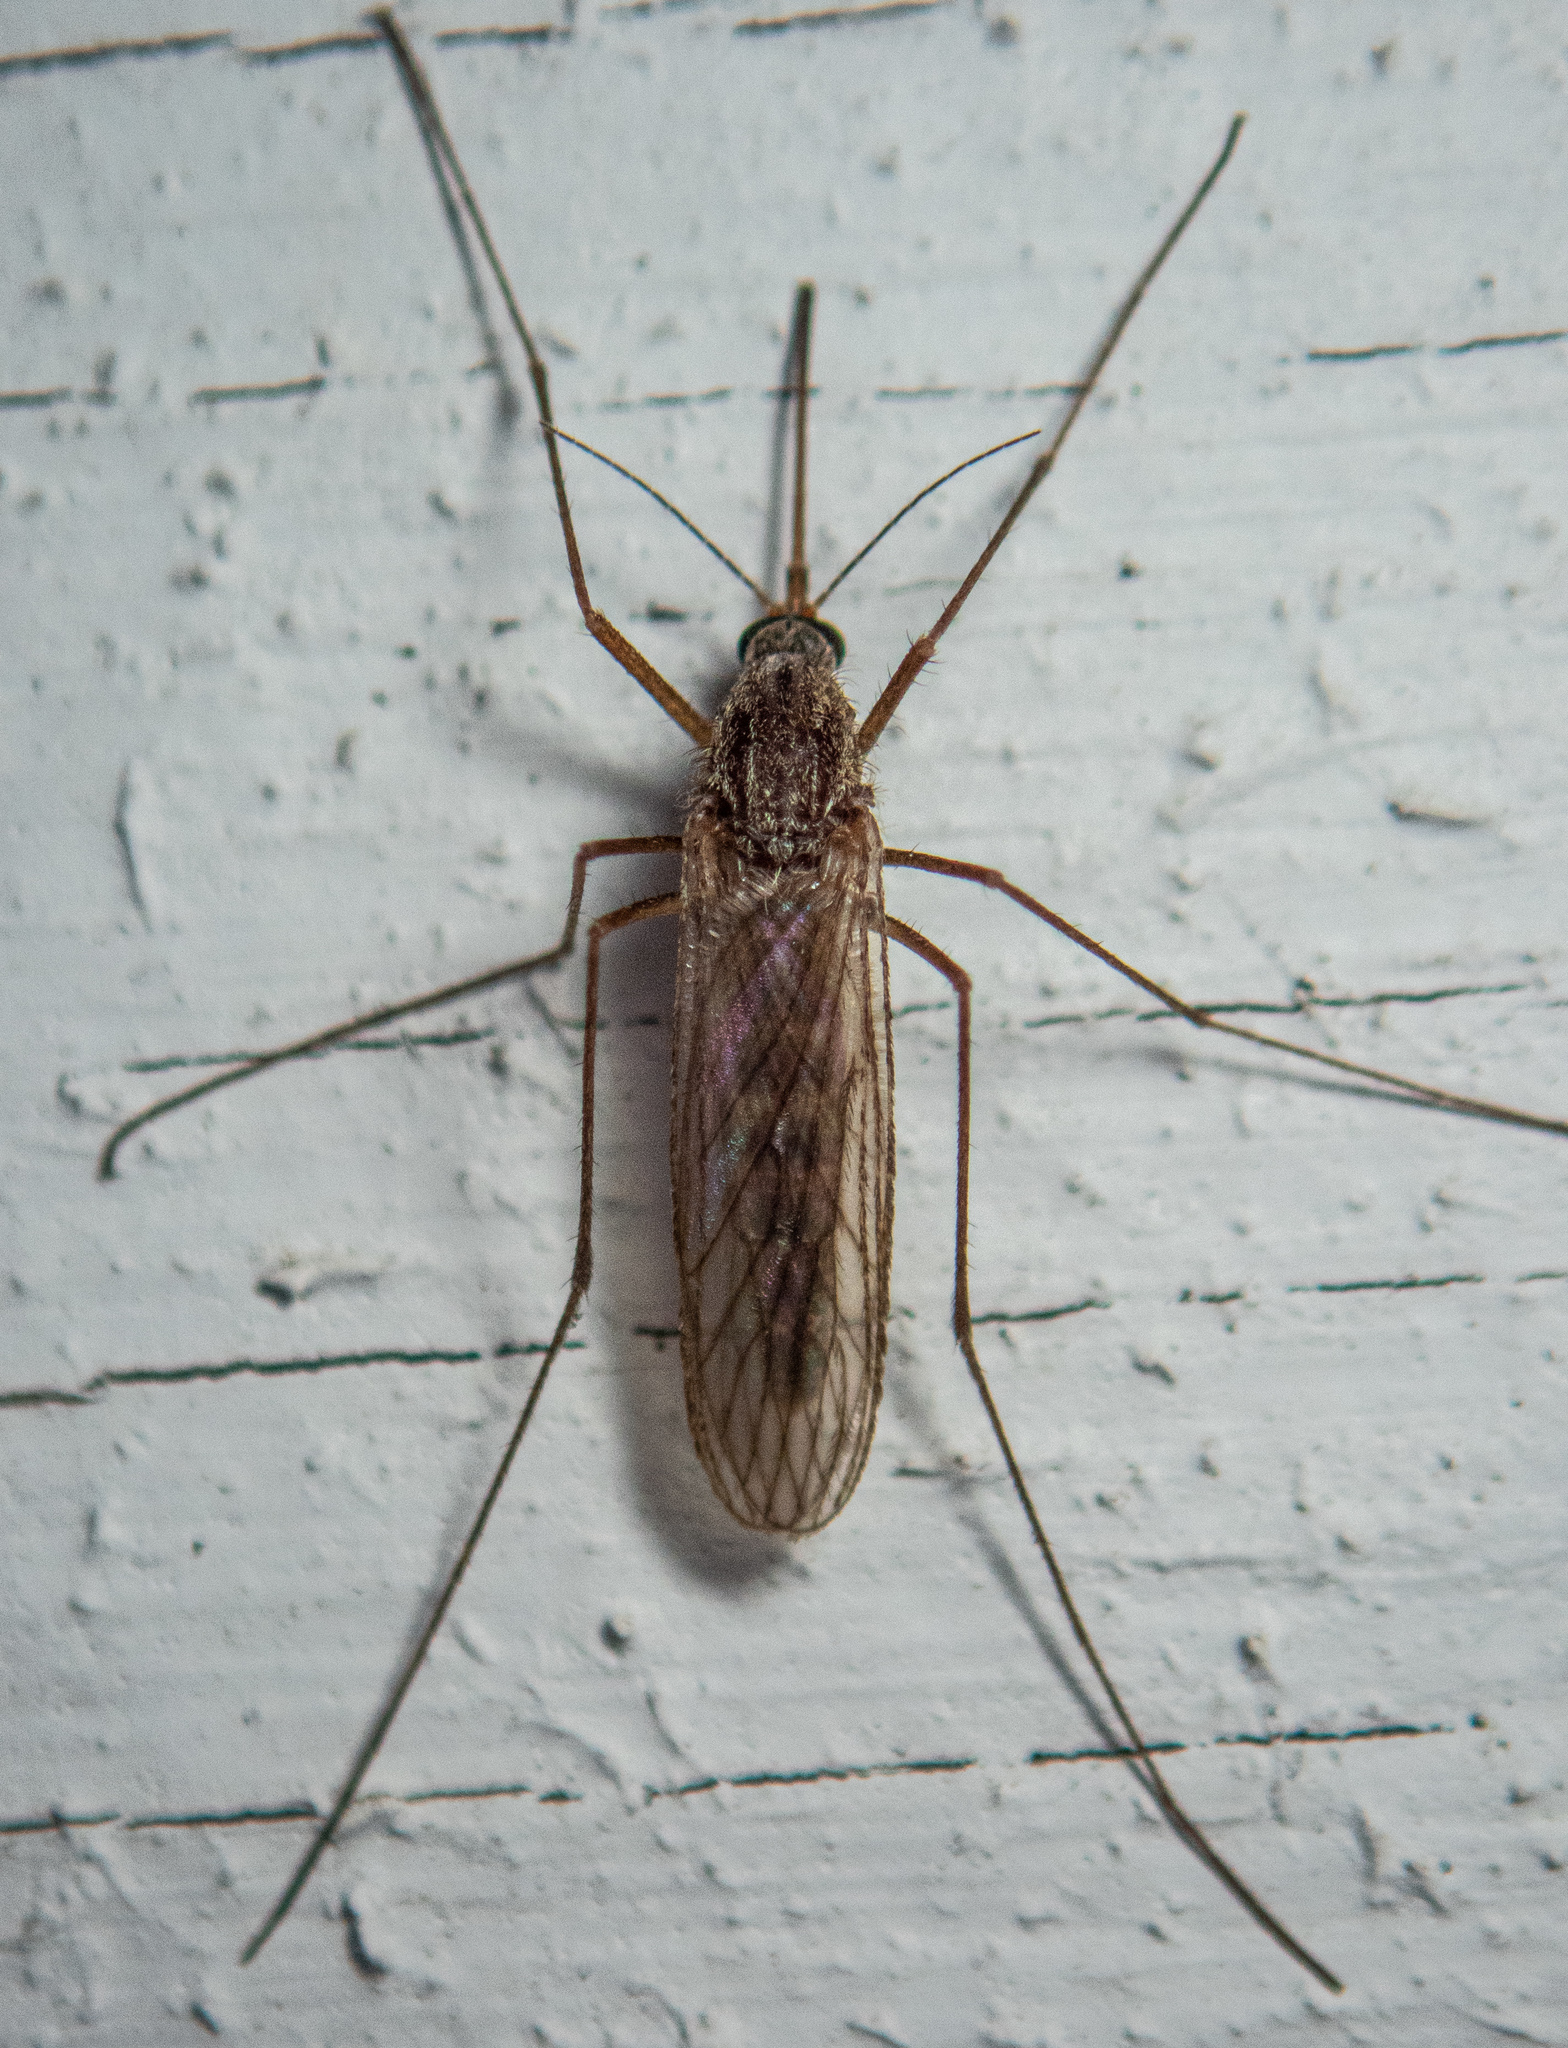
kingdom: Animalia
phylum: Arthropoda
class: Insecta
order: Diptera
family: Culicidae
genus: Culiseta
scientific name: Culiseta inornata
